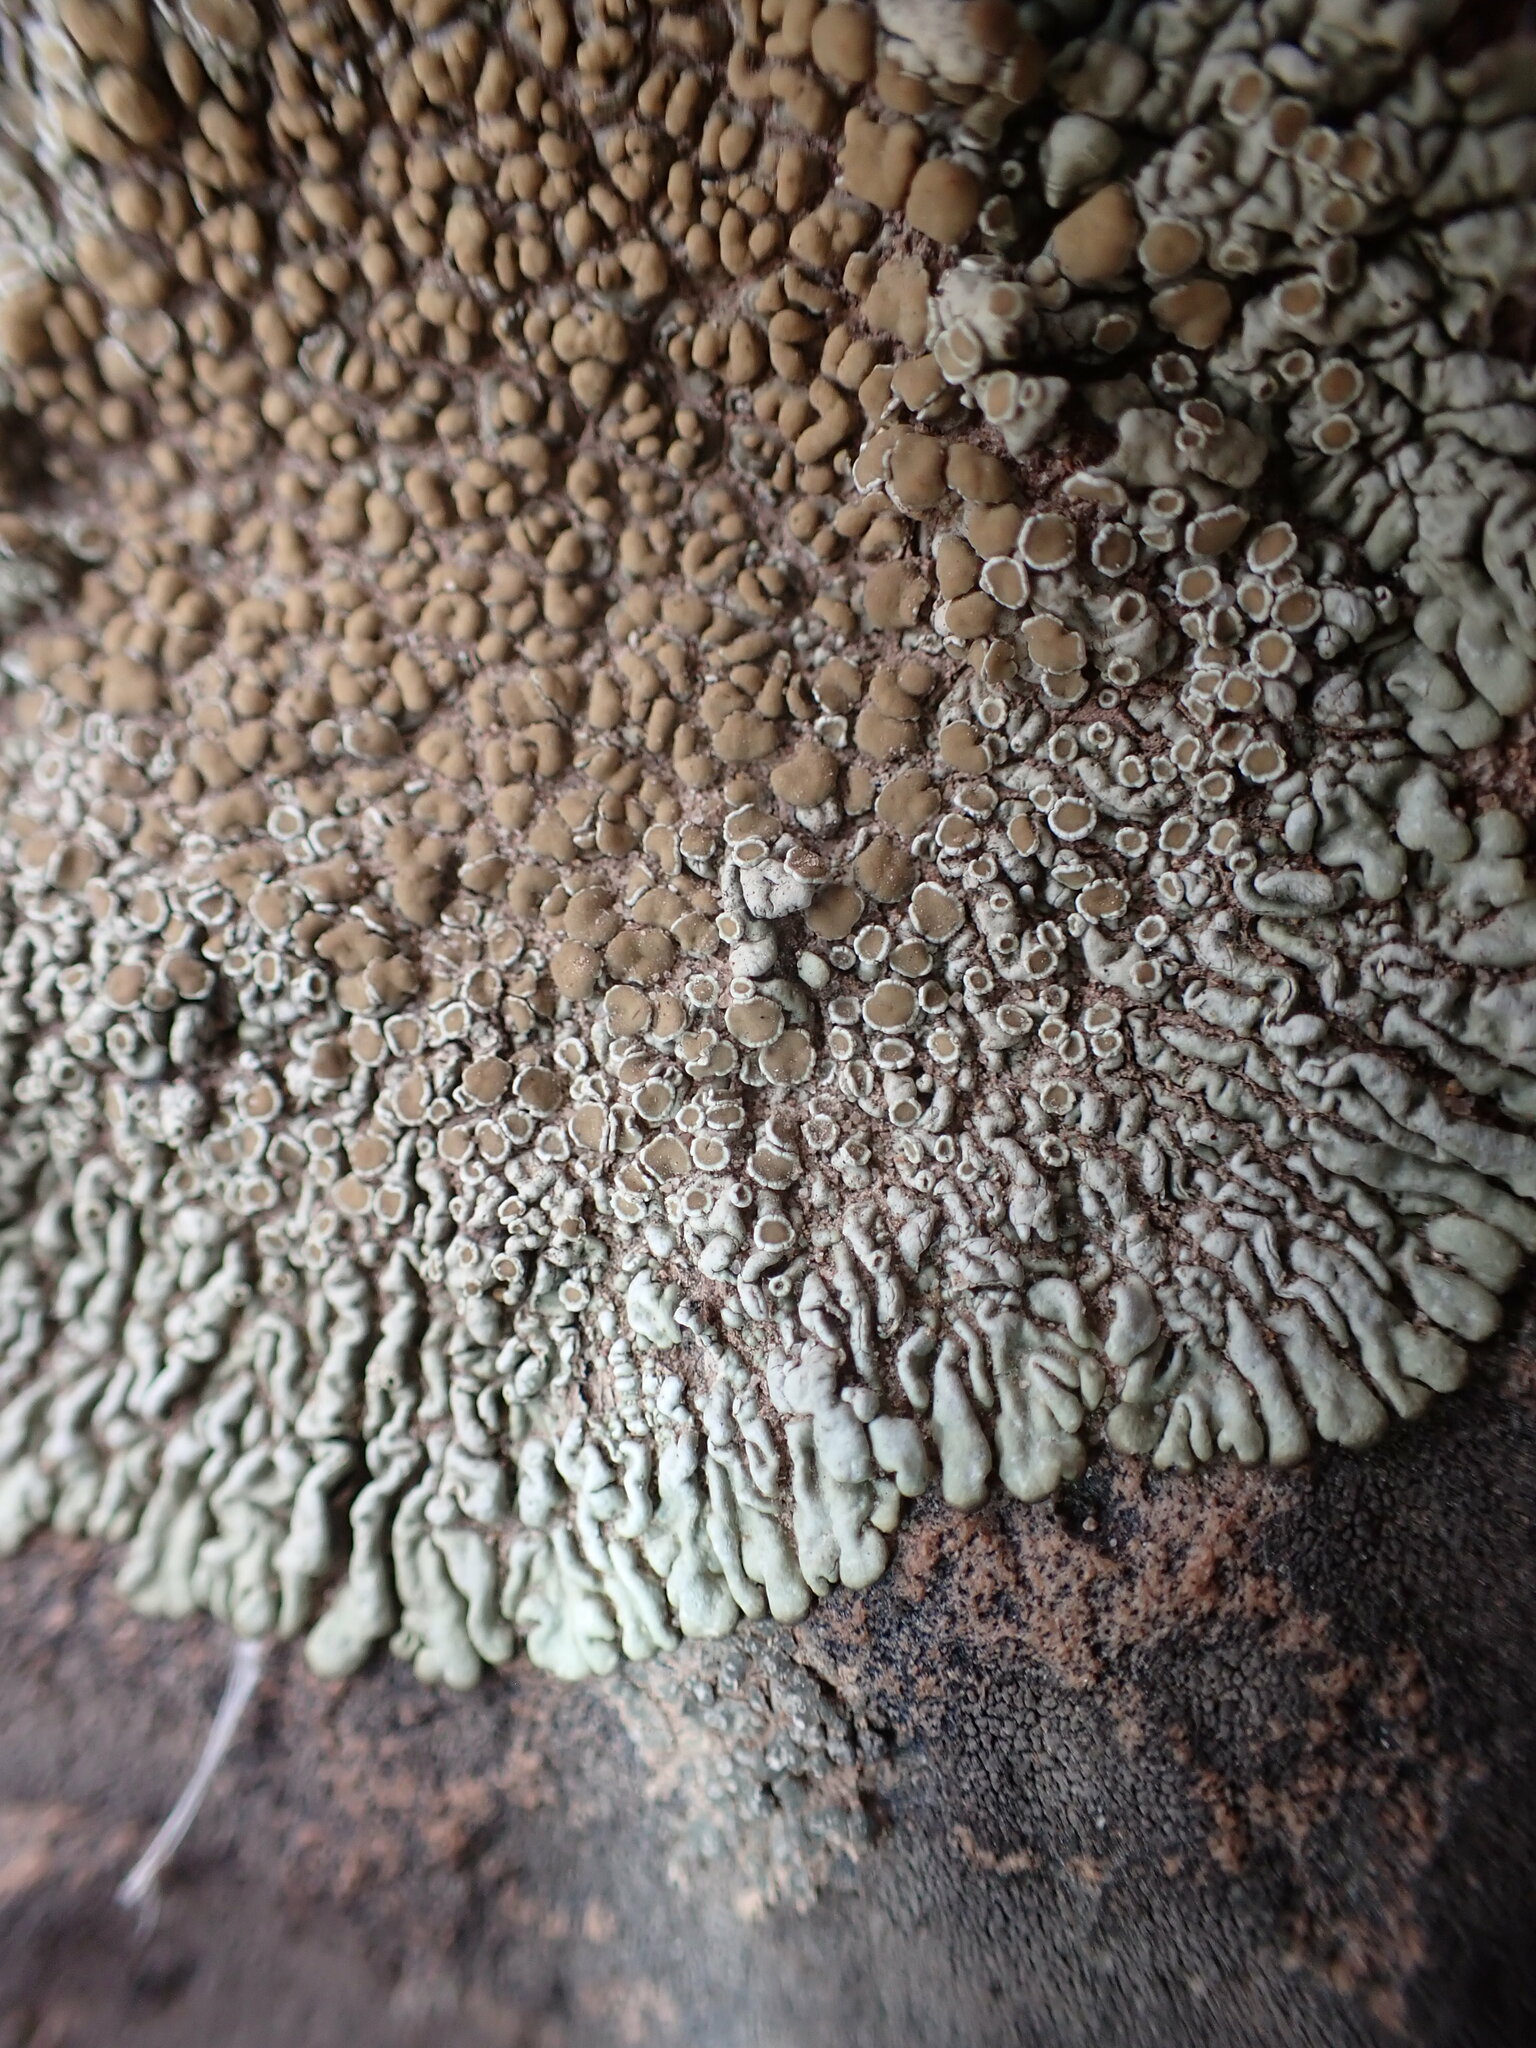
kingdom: Fungi
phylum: Ascomycota
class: Lecanoromycetes
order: Lecanorales
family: Lecanoraceae
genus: Protoparmeliopsis
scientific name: Protoparmeliopsis muralis
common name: Stonewall rim lichen
